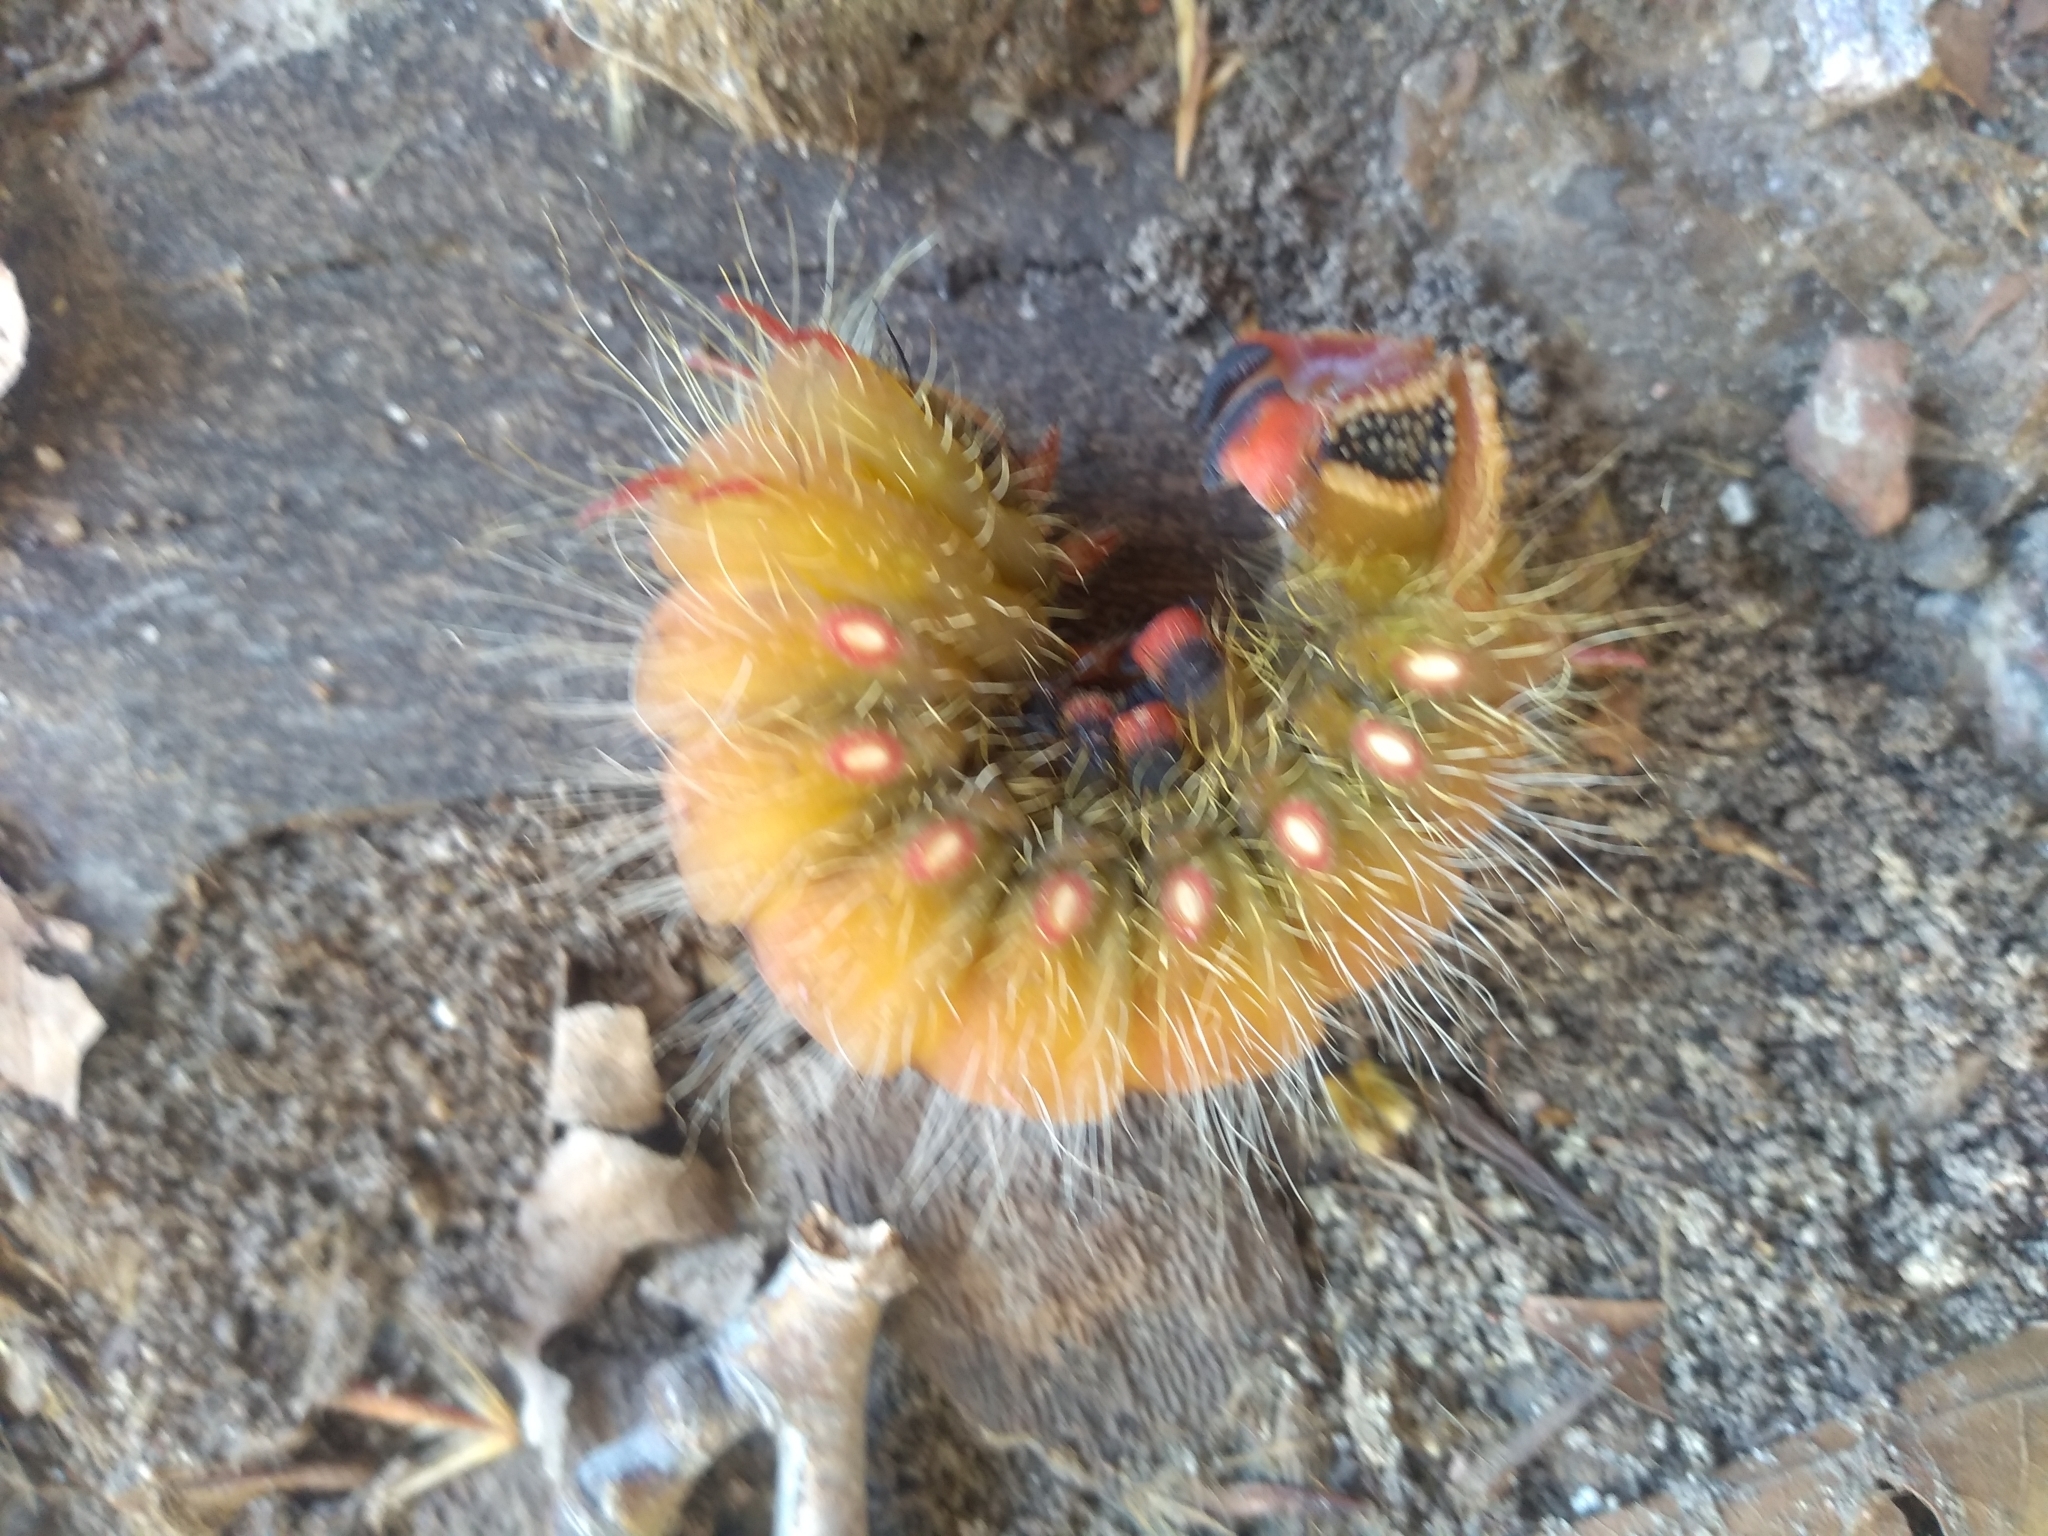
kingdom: Animalia
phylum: Arthropoda
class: Insecta
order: Lepidoptera
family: Saturniidae
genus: Eacles
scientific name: Eacles imperialis
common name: Imperial moth
